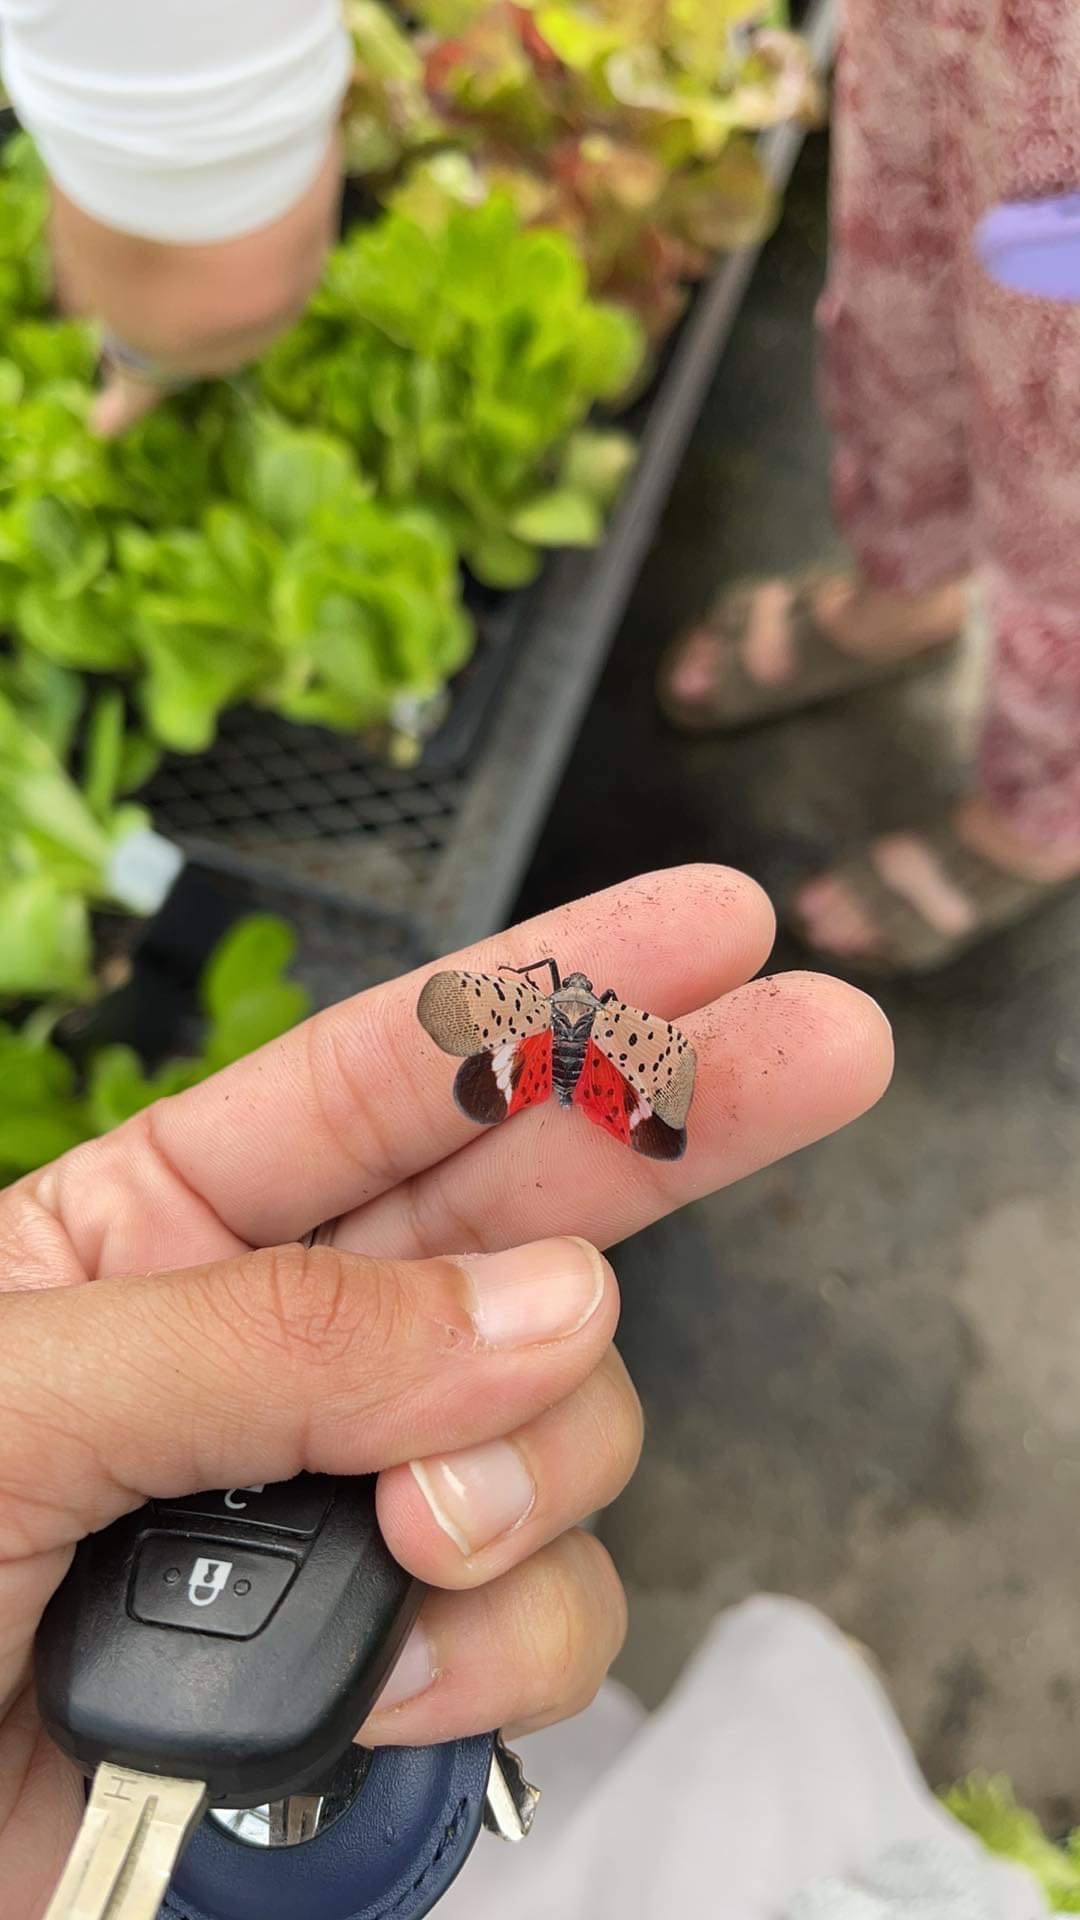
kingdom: Animalia
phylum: Arthropoda
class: Insecta
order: Hemiptera
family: Fulgoridae
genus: Lycorma
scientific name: Lycorma delicatula
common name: Spotted lanternfly
